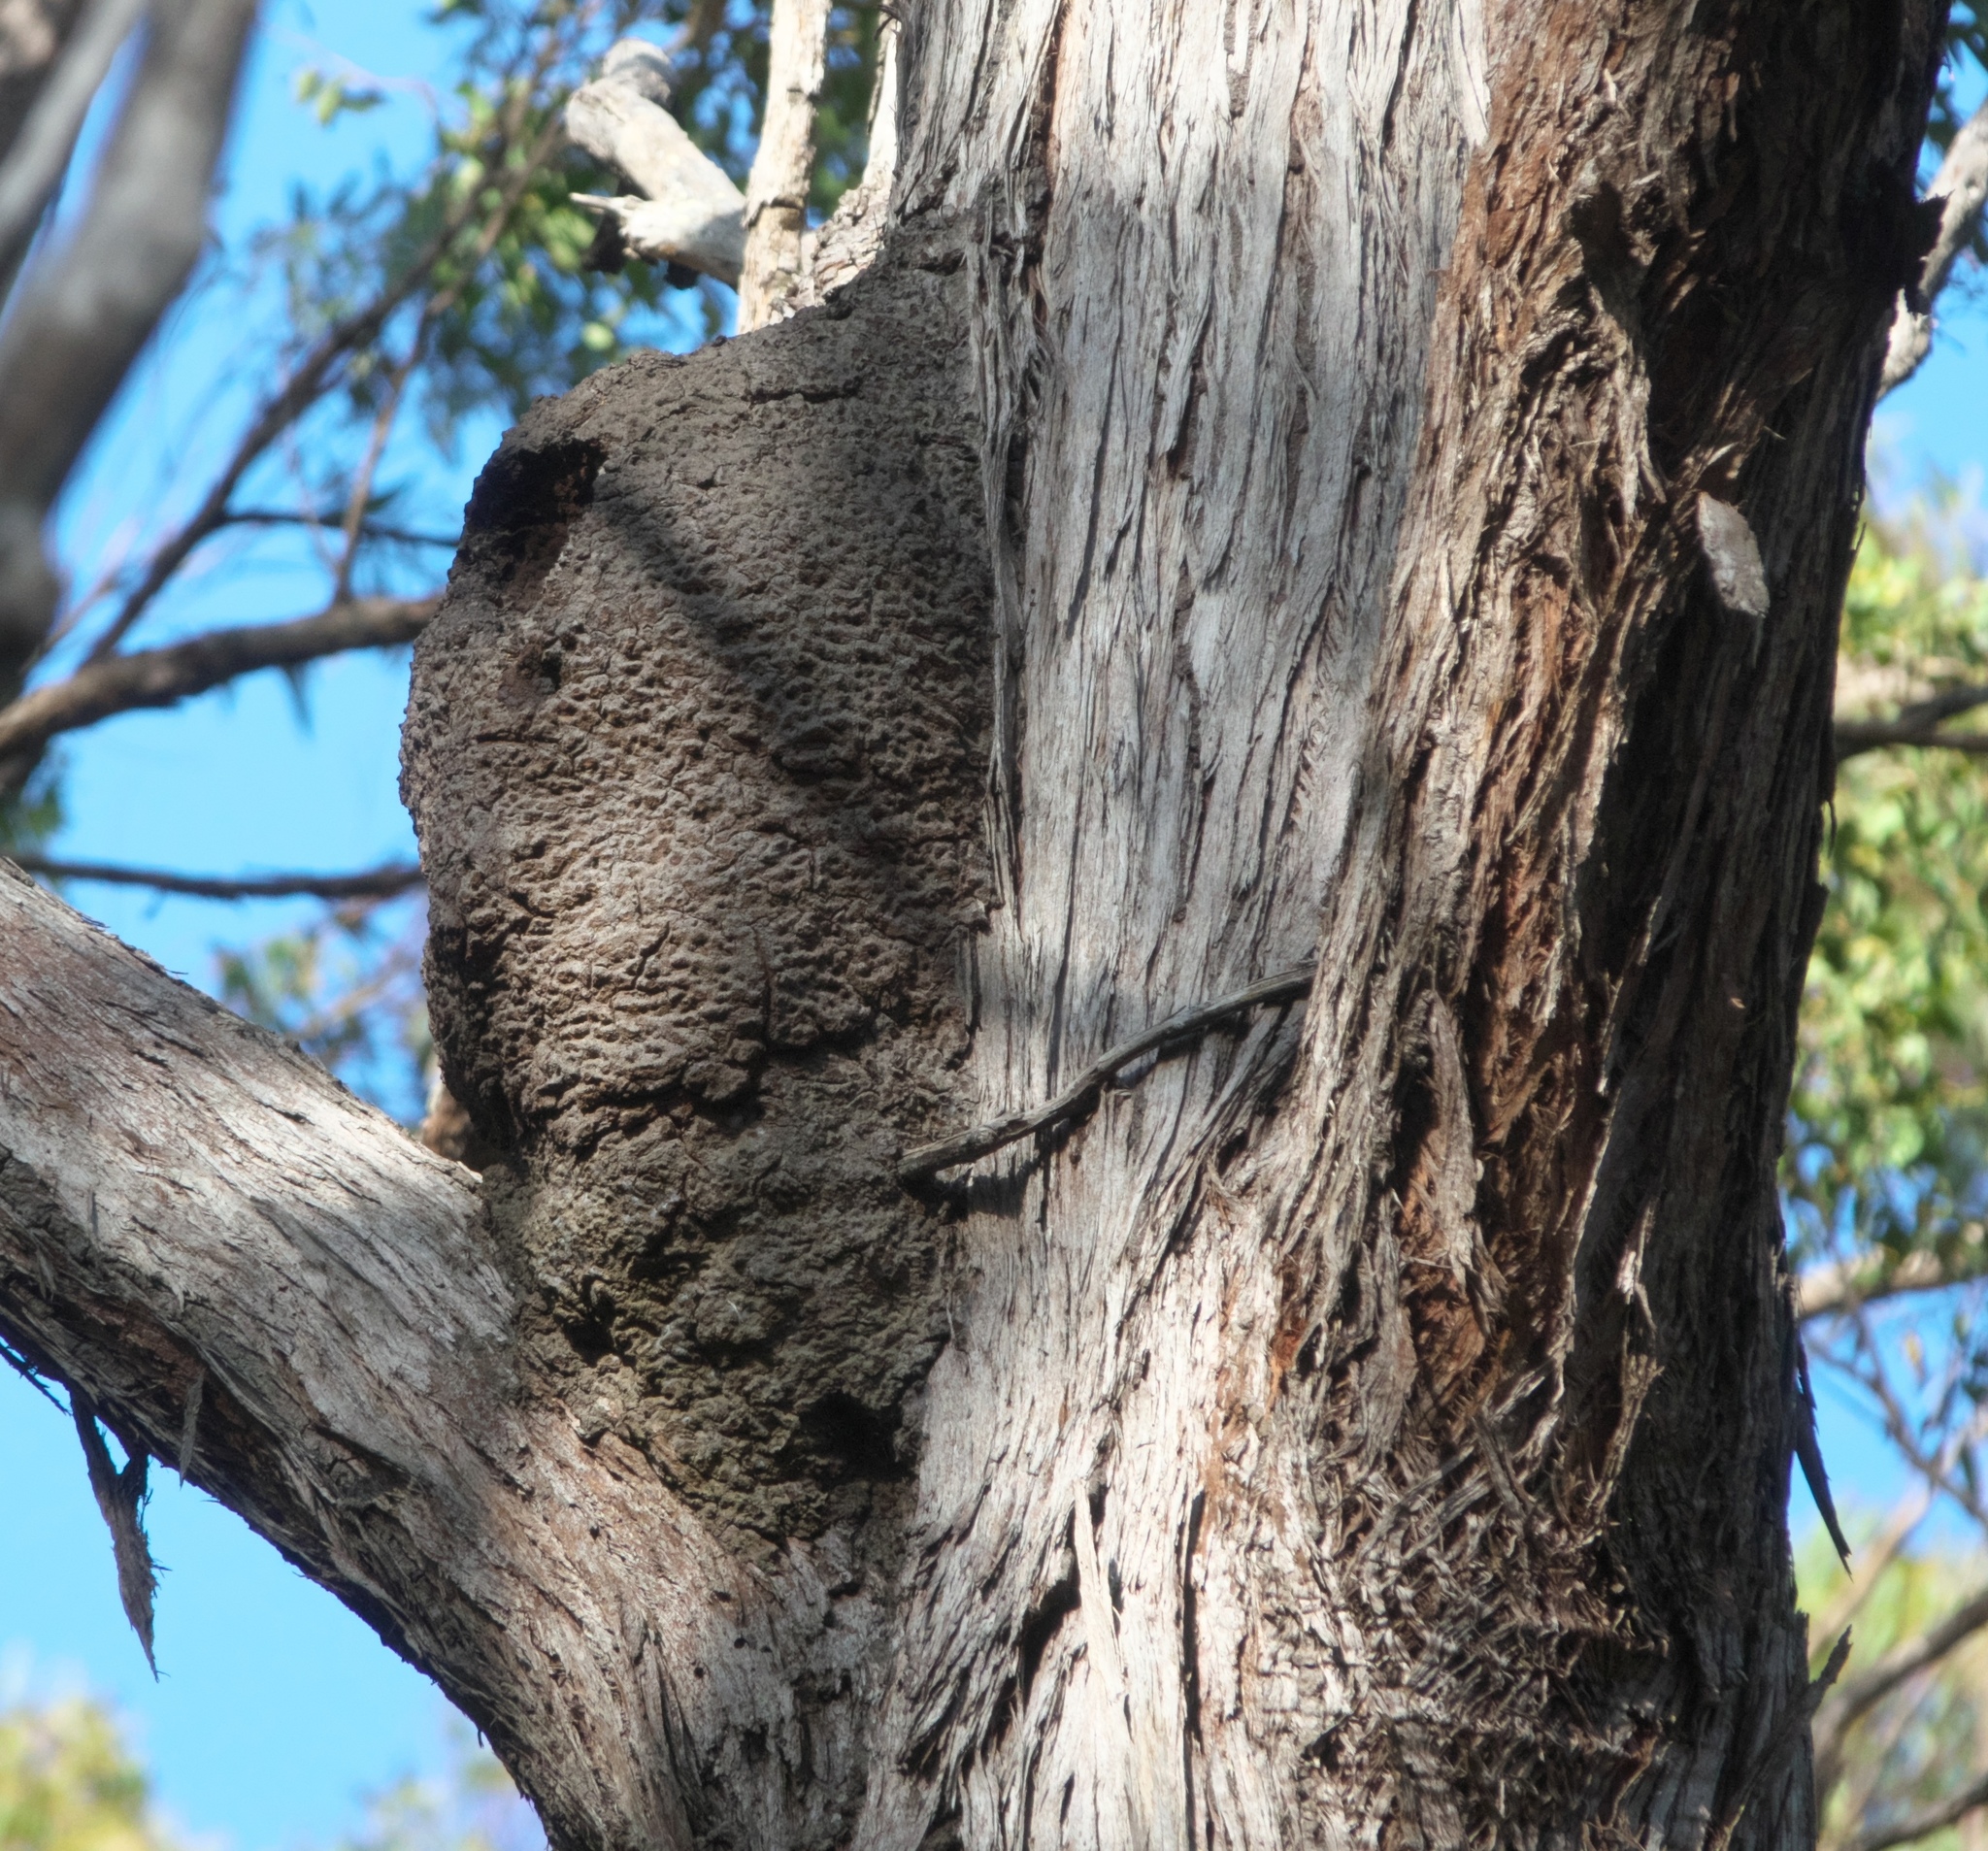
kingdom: Animalia
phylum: Arthropoda
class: Insecta
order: Blattodea
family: Termitidae
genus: Nasutitermes
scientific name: Nasutitermes walkeri
